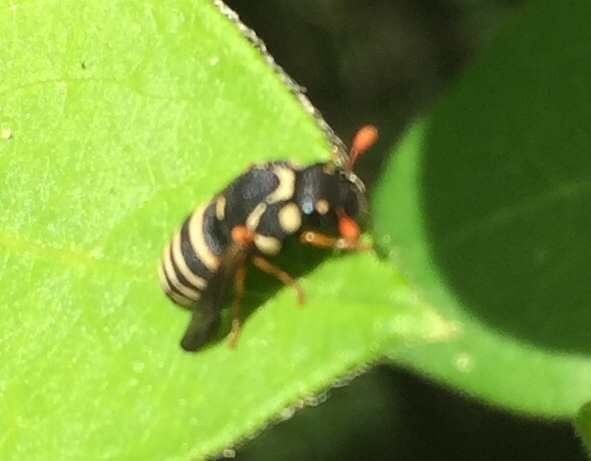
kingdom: Animalia
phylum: Arthropoda
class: Insecta
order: Hymenoptera
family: Masaridae
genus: Celonites
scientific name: Celonites abbreviatus
